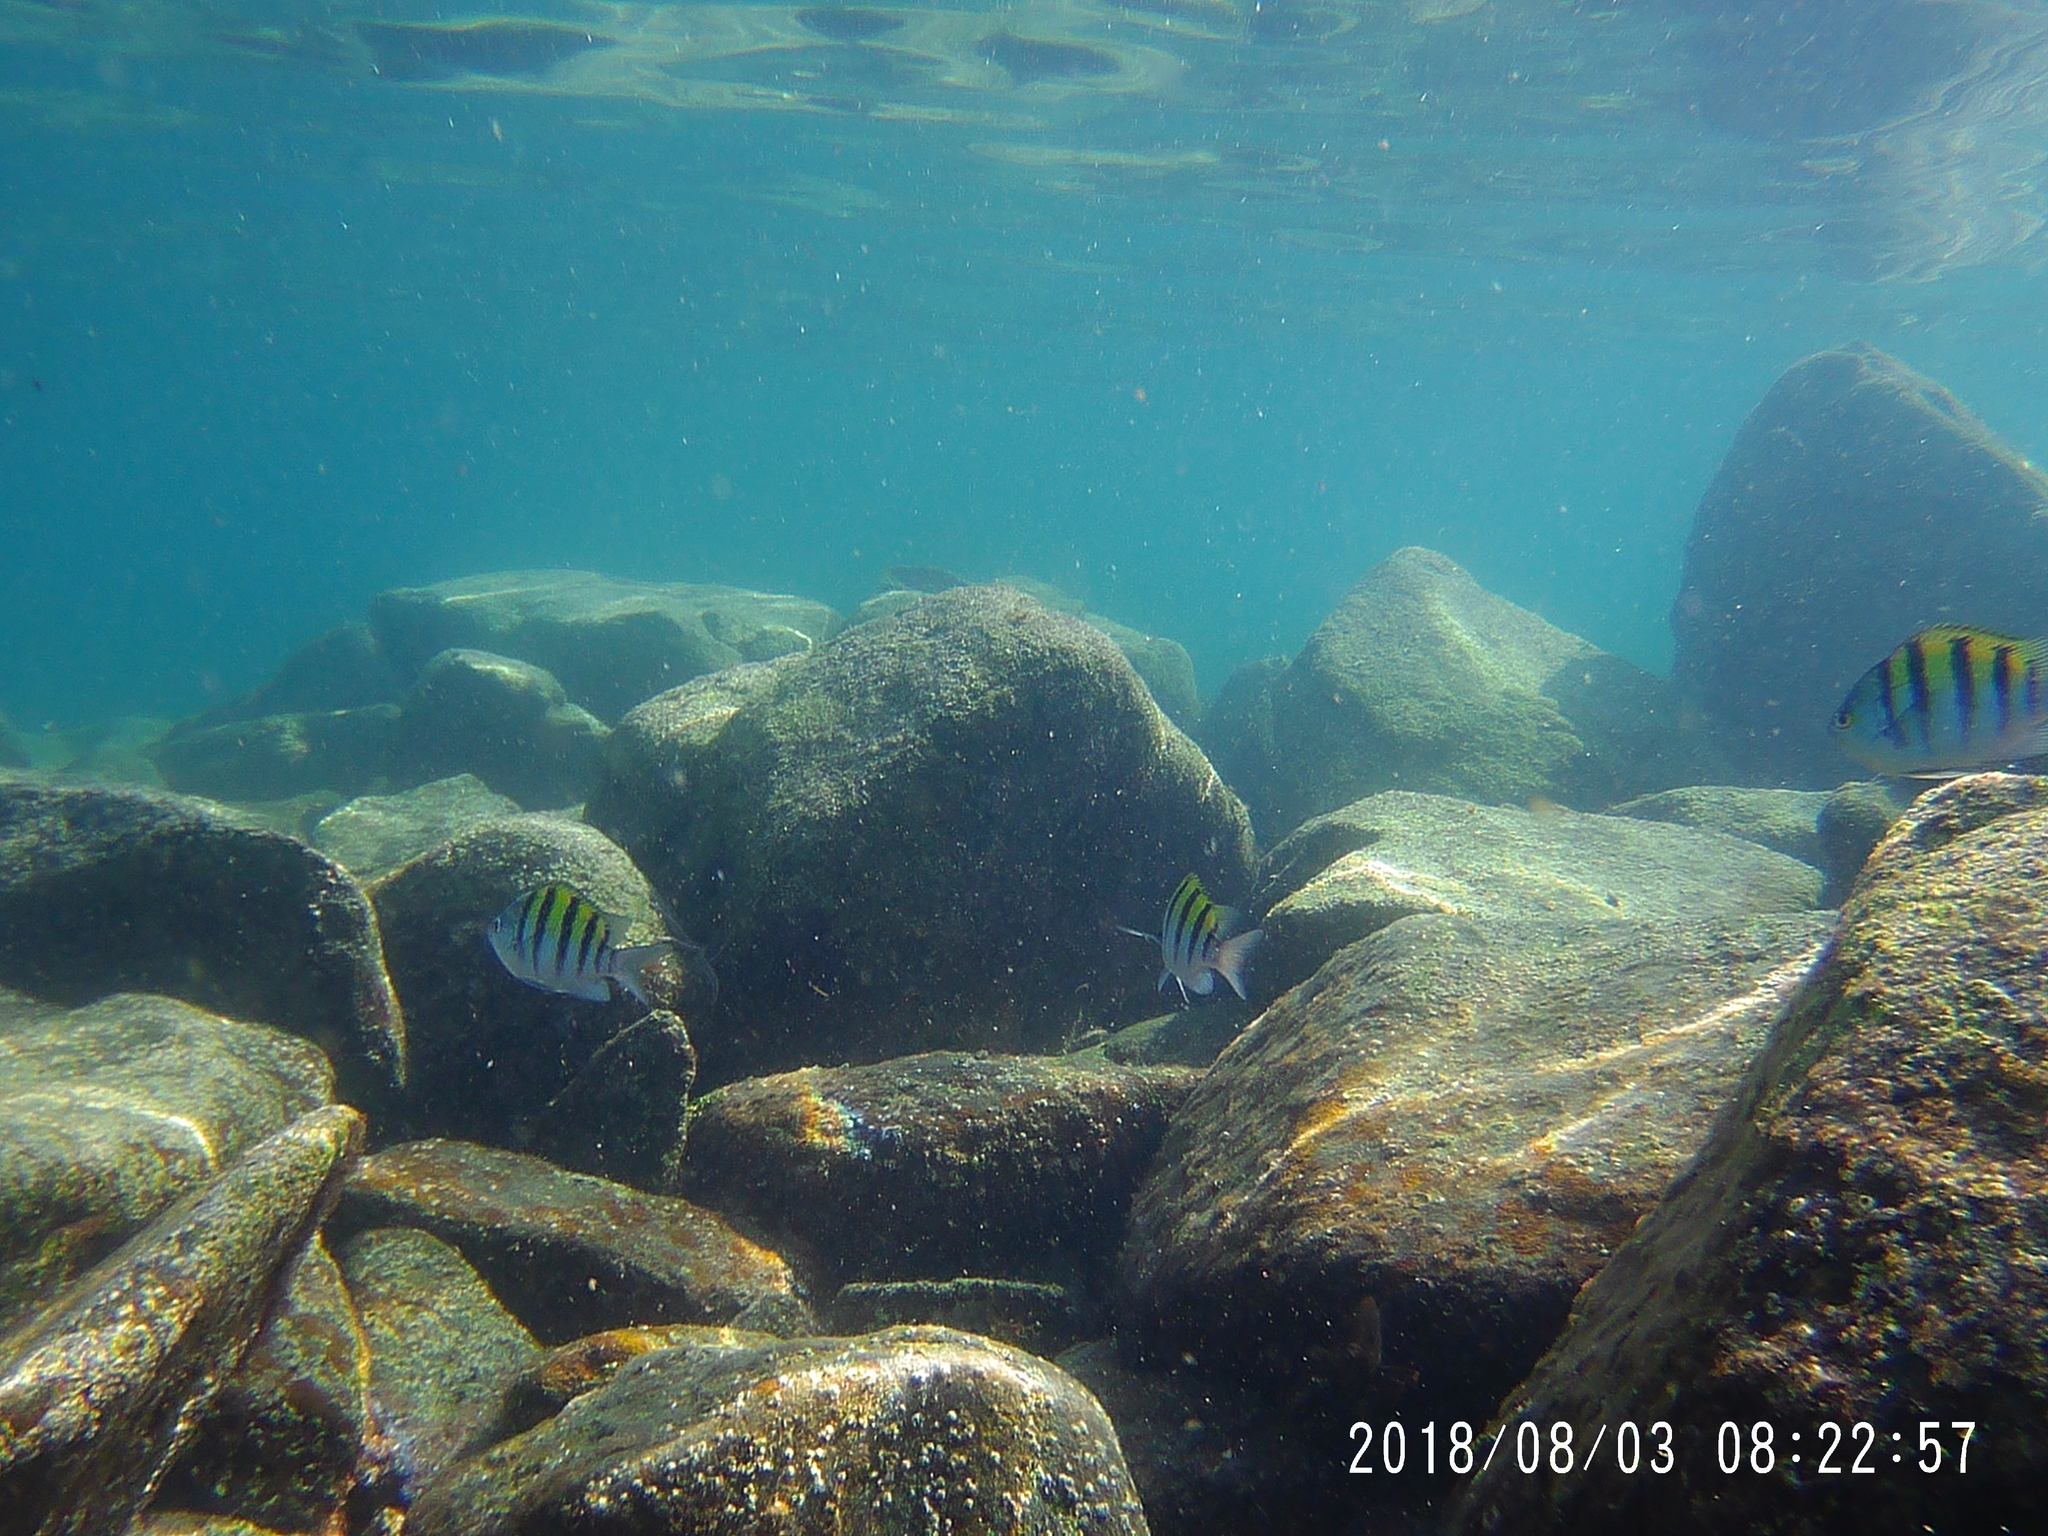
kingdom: Animalia
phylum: Chordata
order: Perciformes
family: Pomacentridae
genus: Abudefduf
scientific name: Abudefduf troschelii
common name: Panamic sergeant major
